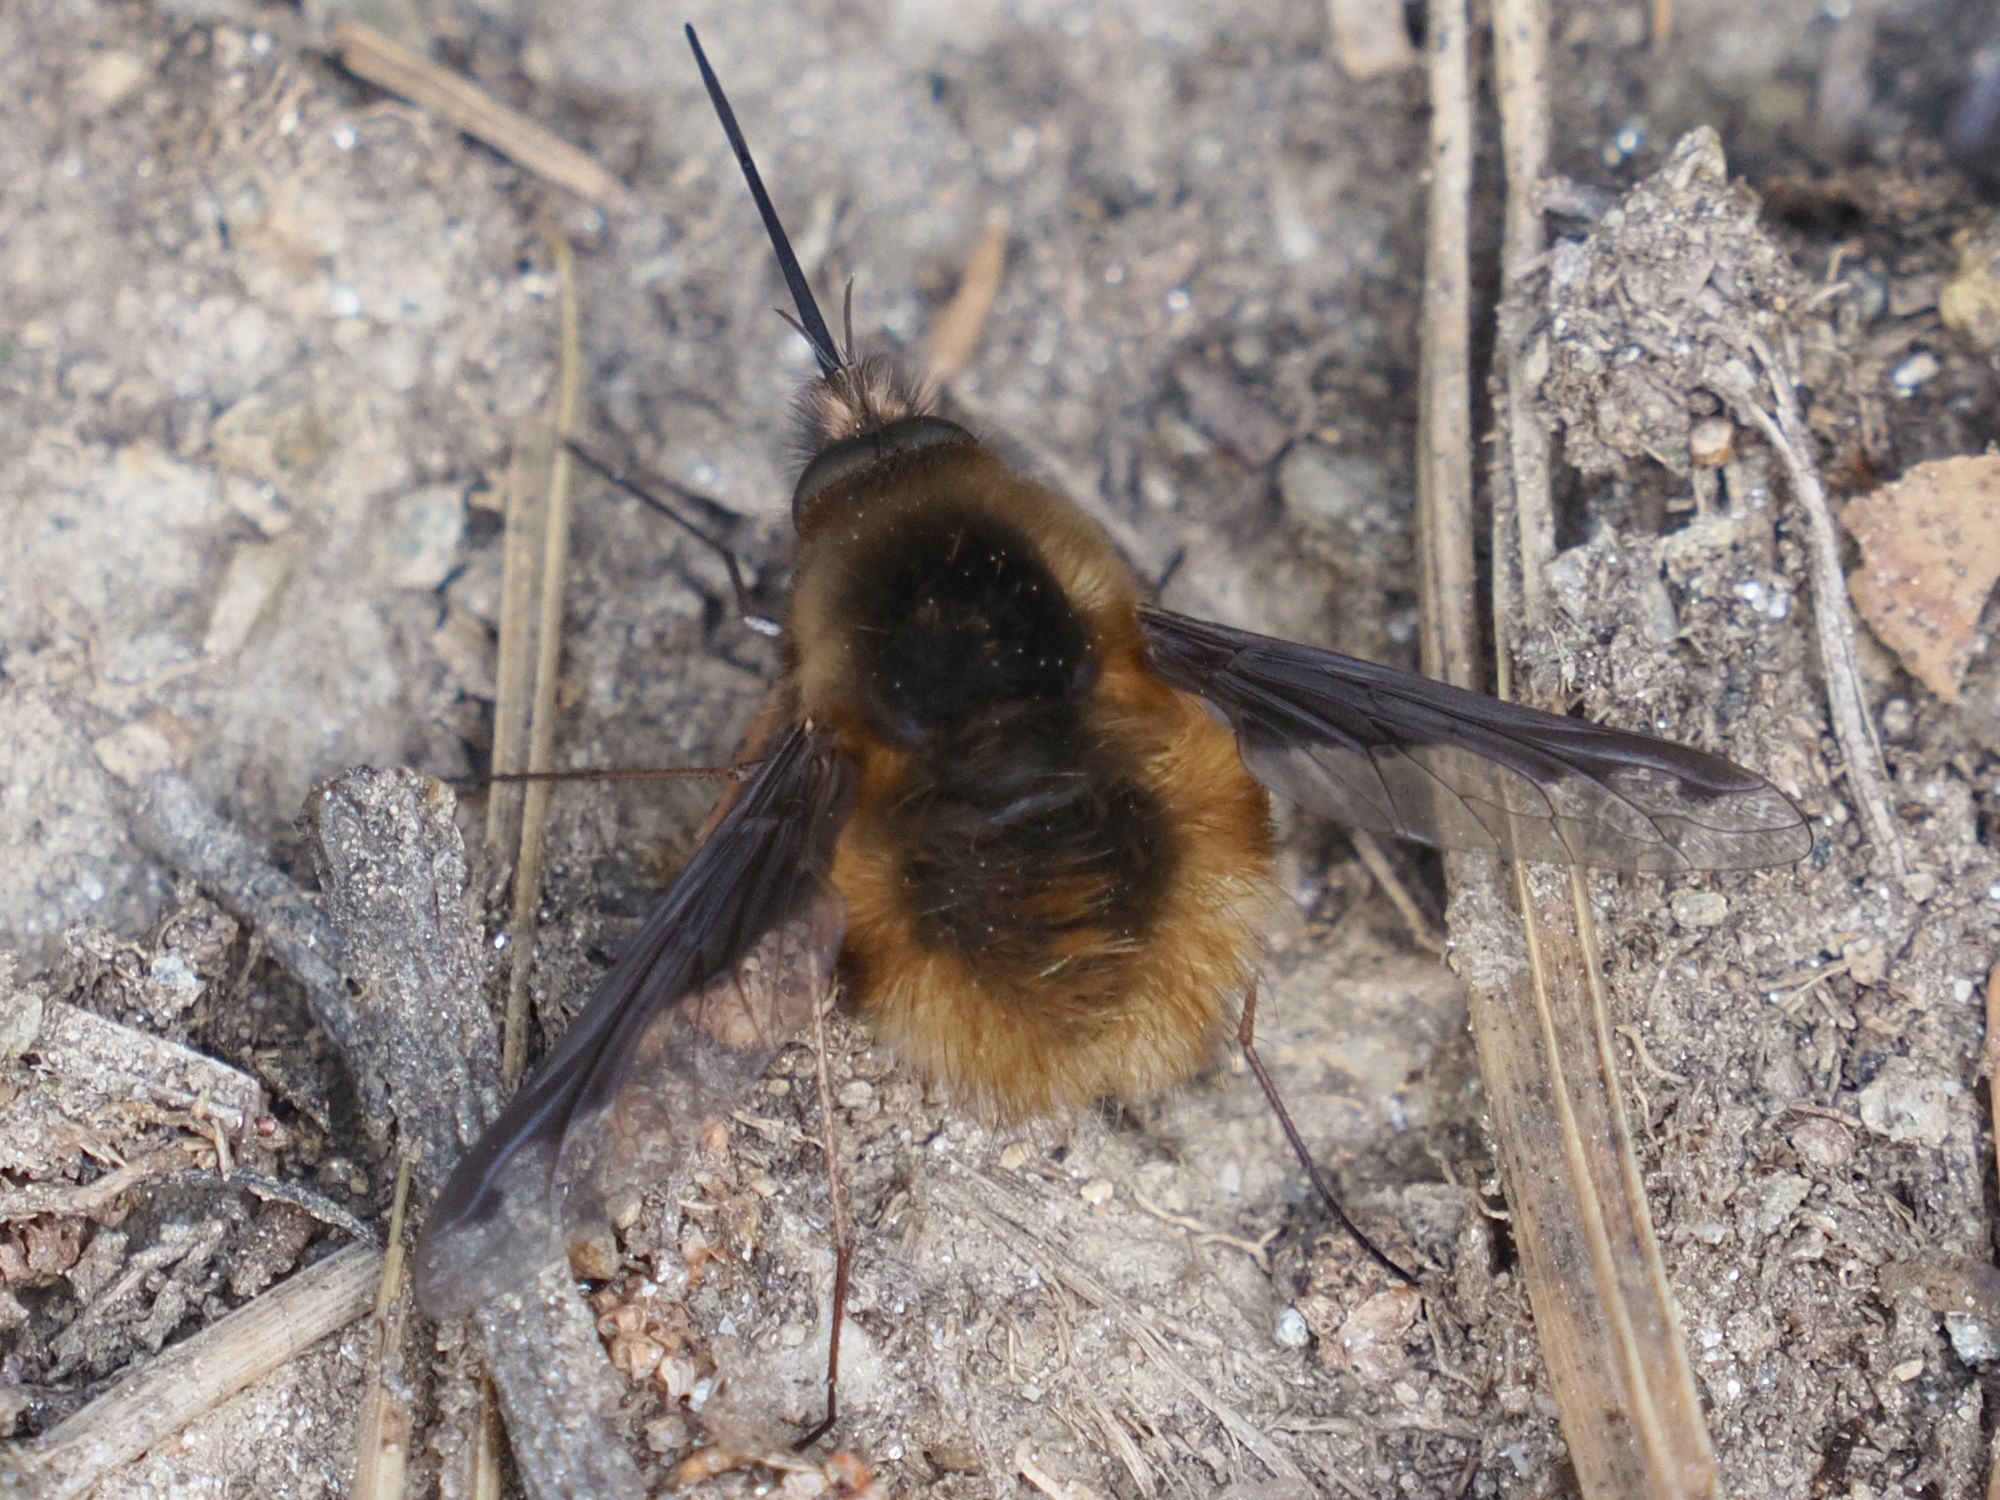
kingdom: Animalia
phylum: Arthropoda
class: Insecta
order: Diptera
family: Bombyliidae
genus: Bombylius
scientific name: Bombylius major
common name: Bee fly
